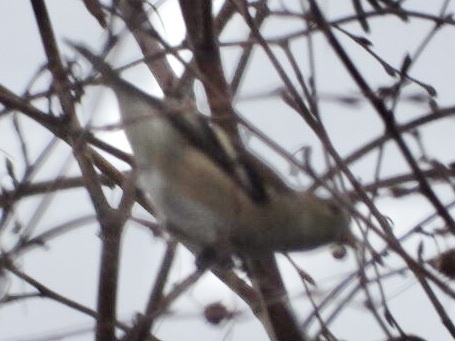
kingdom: Animalia
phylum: Chordata
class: Aves
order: Passeriformes
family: Fringillidae
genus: Spinus
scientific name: Spinus tristis
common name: American goldfinch
